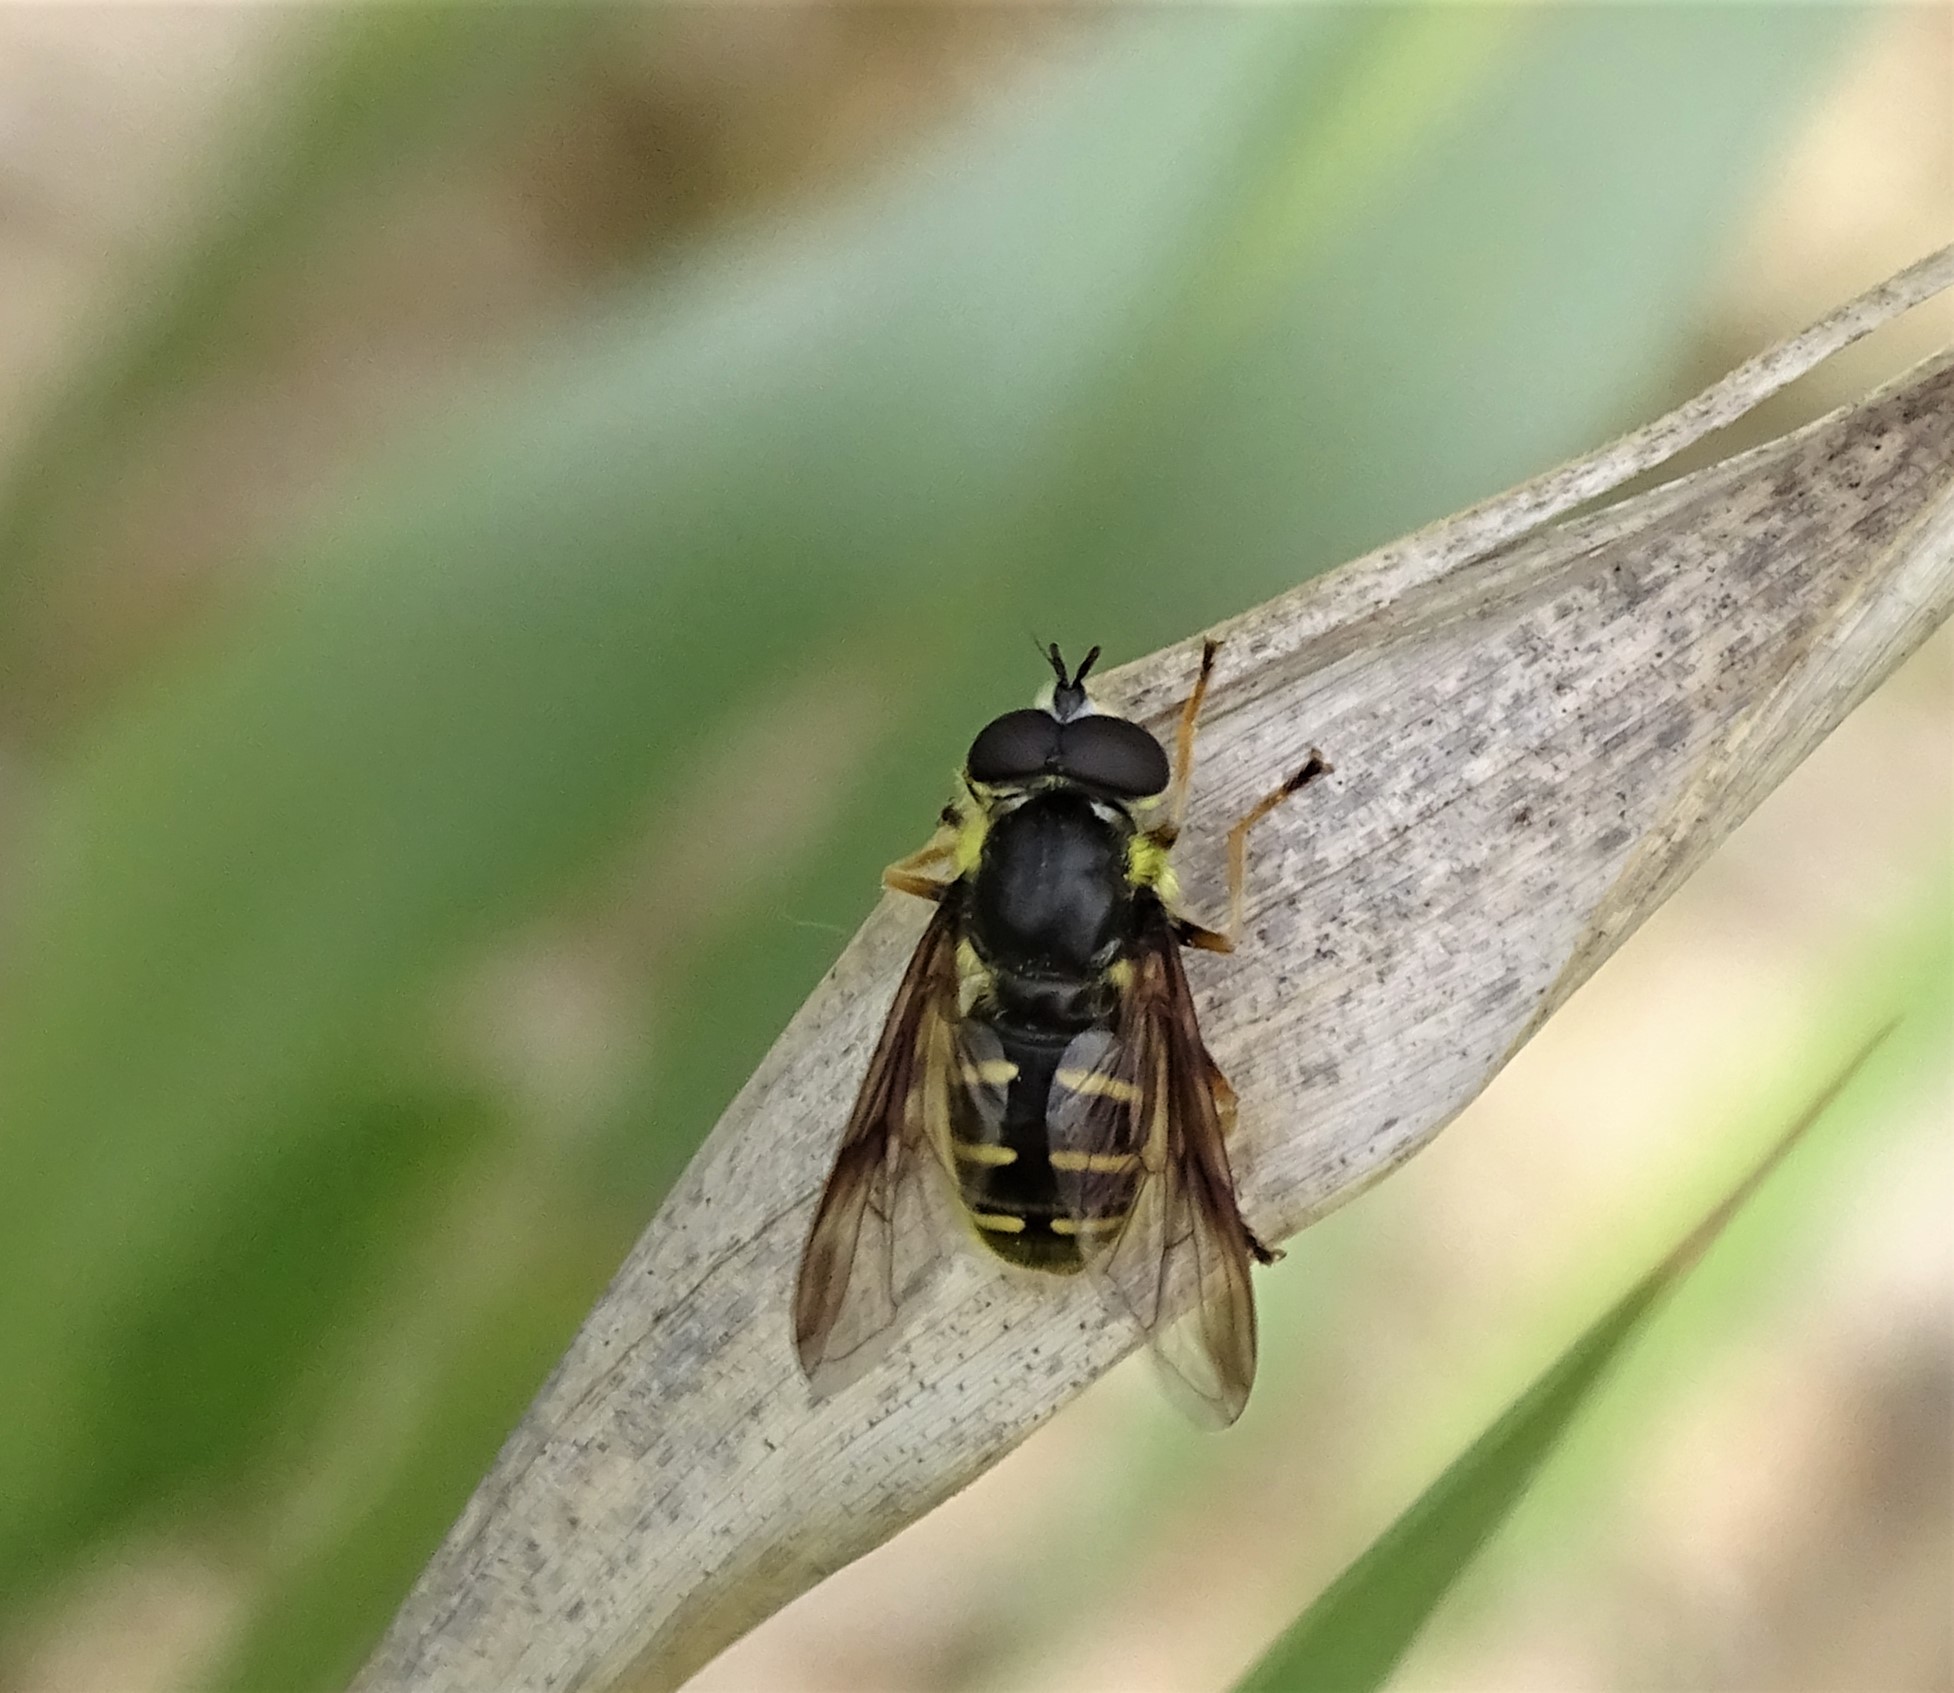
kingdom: Animalia
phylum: Arthropoda
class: Insecta
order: Diptera
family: Syrphidae
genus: Sericomyia
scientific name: Sericomyia chrysotoxoides
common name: Oblique-banded pond fly
